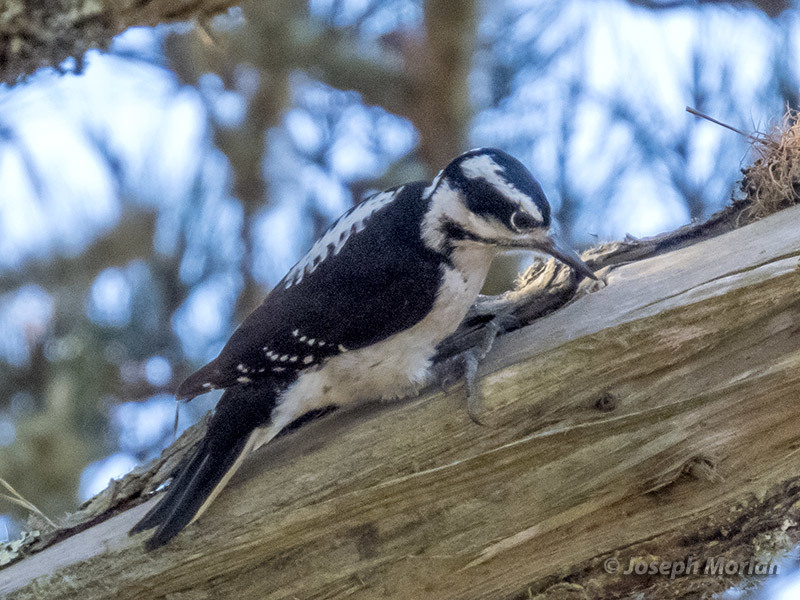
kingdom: Animalia
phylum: Chordata
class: Aves
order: Piciformes
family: Picidae
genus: Leuconotopicus
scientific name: Leuconotopicus villosus
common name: Hairy woodpecker
